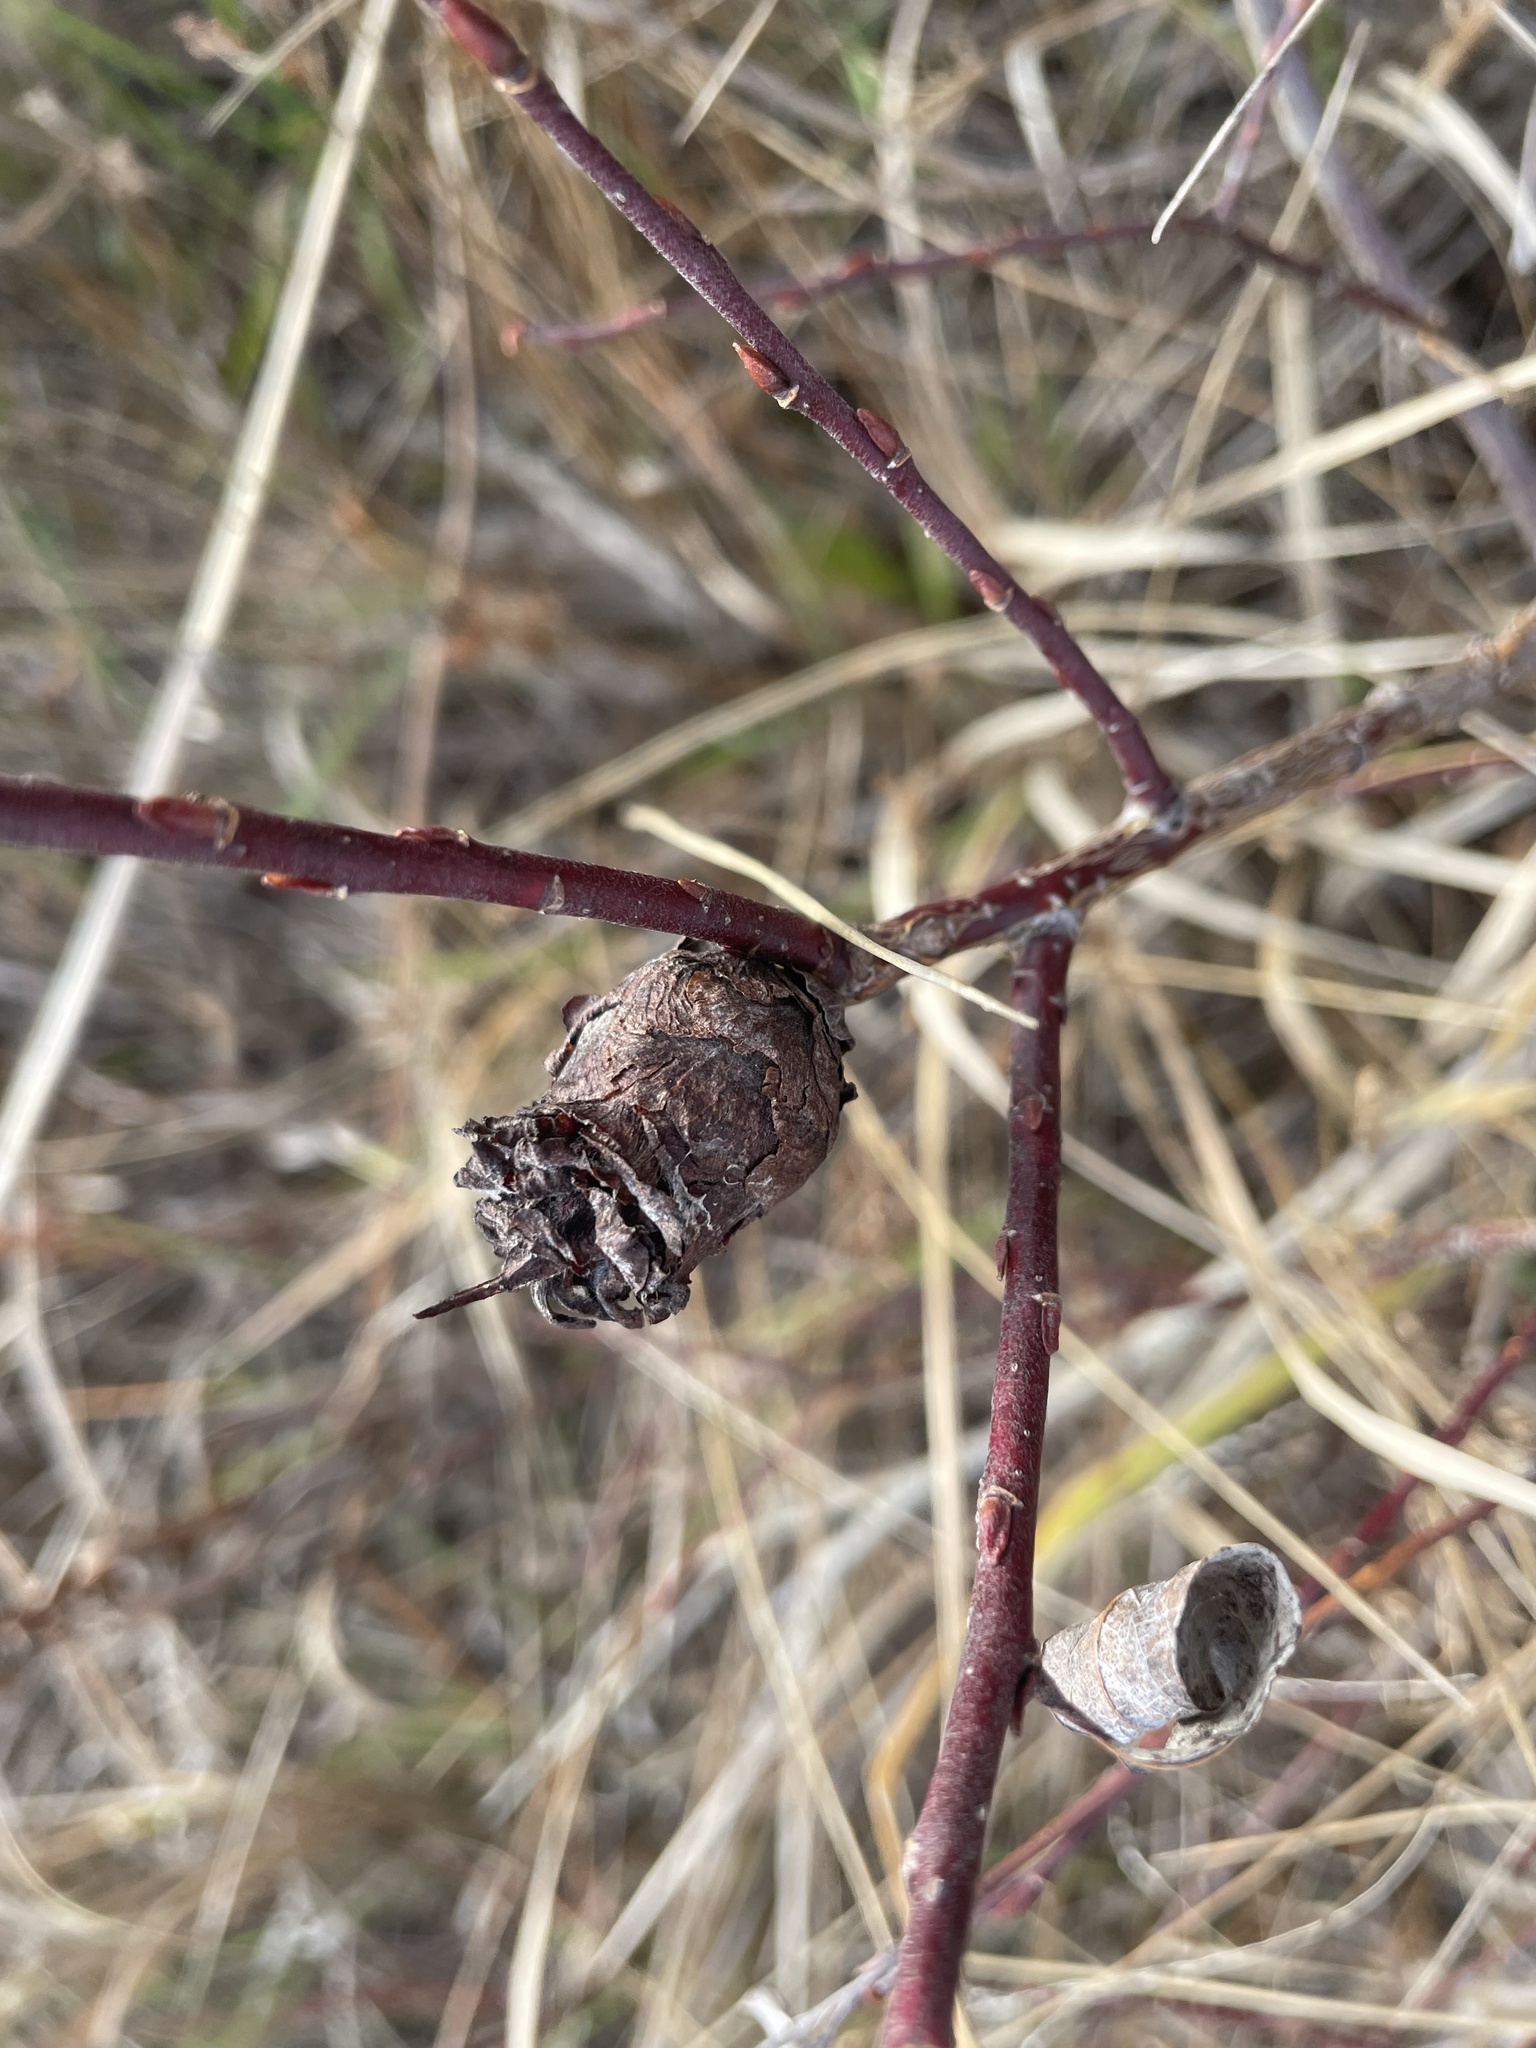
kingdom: Animalia
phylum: Arthropoda
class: Insecta
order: Diptera
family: Cecidomyiidae
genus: Rabdophaga
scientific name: Rabdophaga strobiloides
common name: Willow pinecone gall midge
